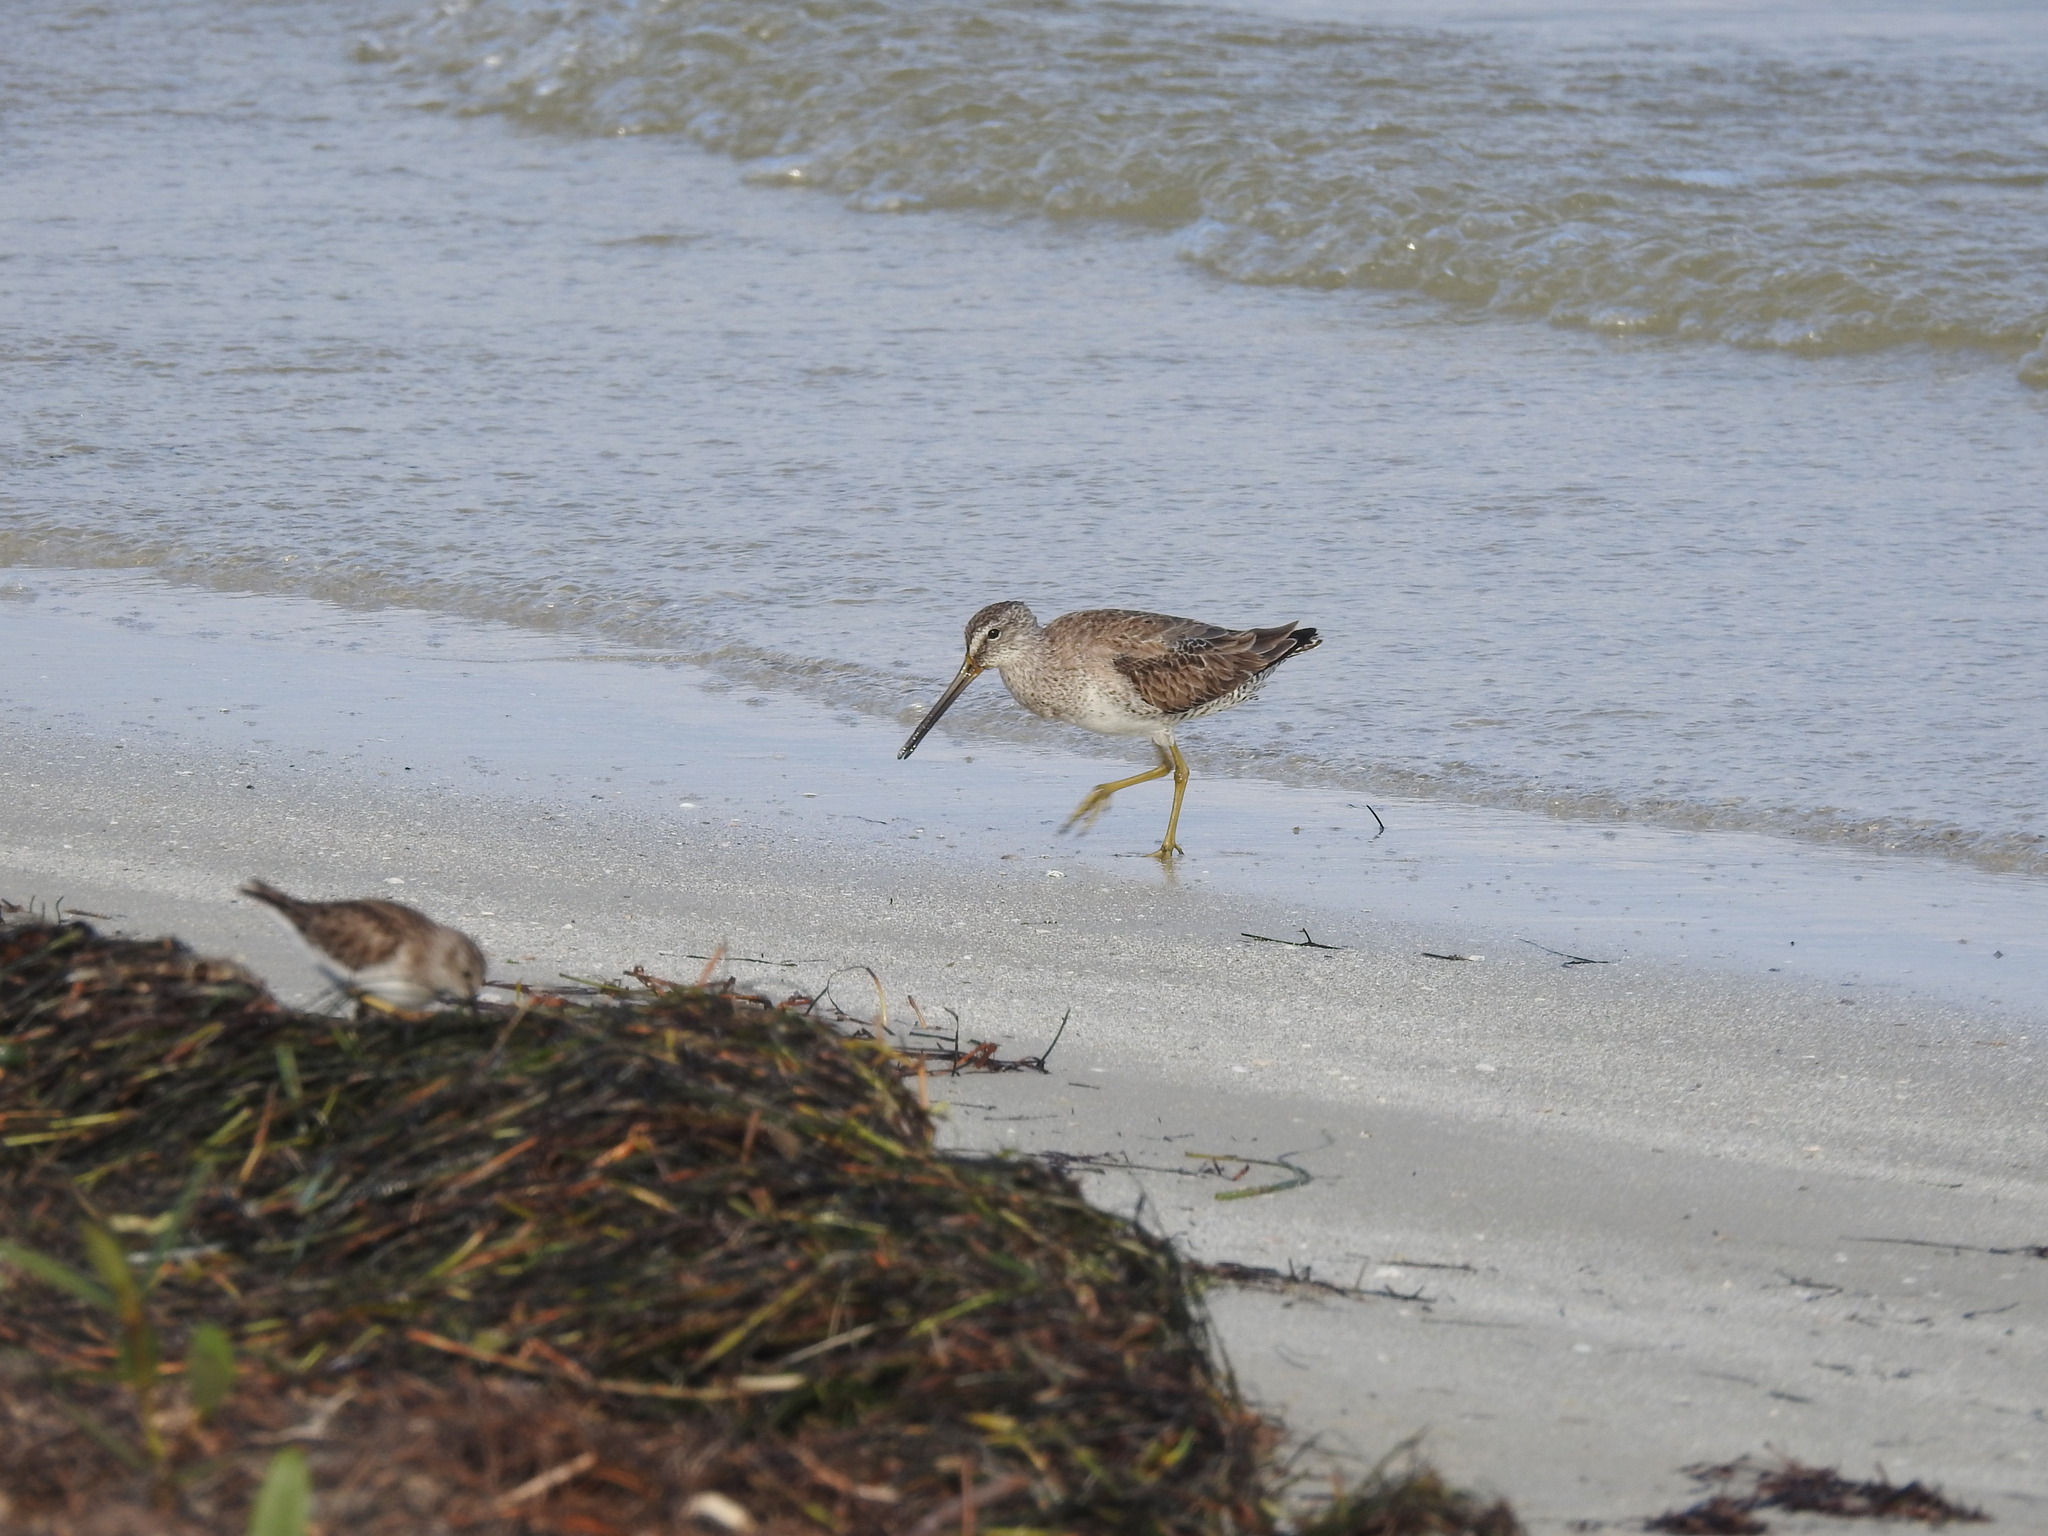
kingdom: Animalia
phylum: Chordata
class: Aves
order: Charadriiformes
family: Scolopacidae
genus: Limnodromus
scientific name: Limnodromus griseus
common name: Short-billed dowitcher
